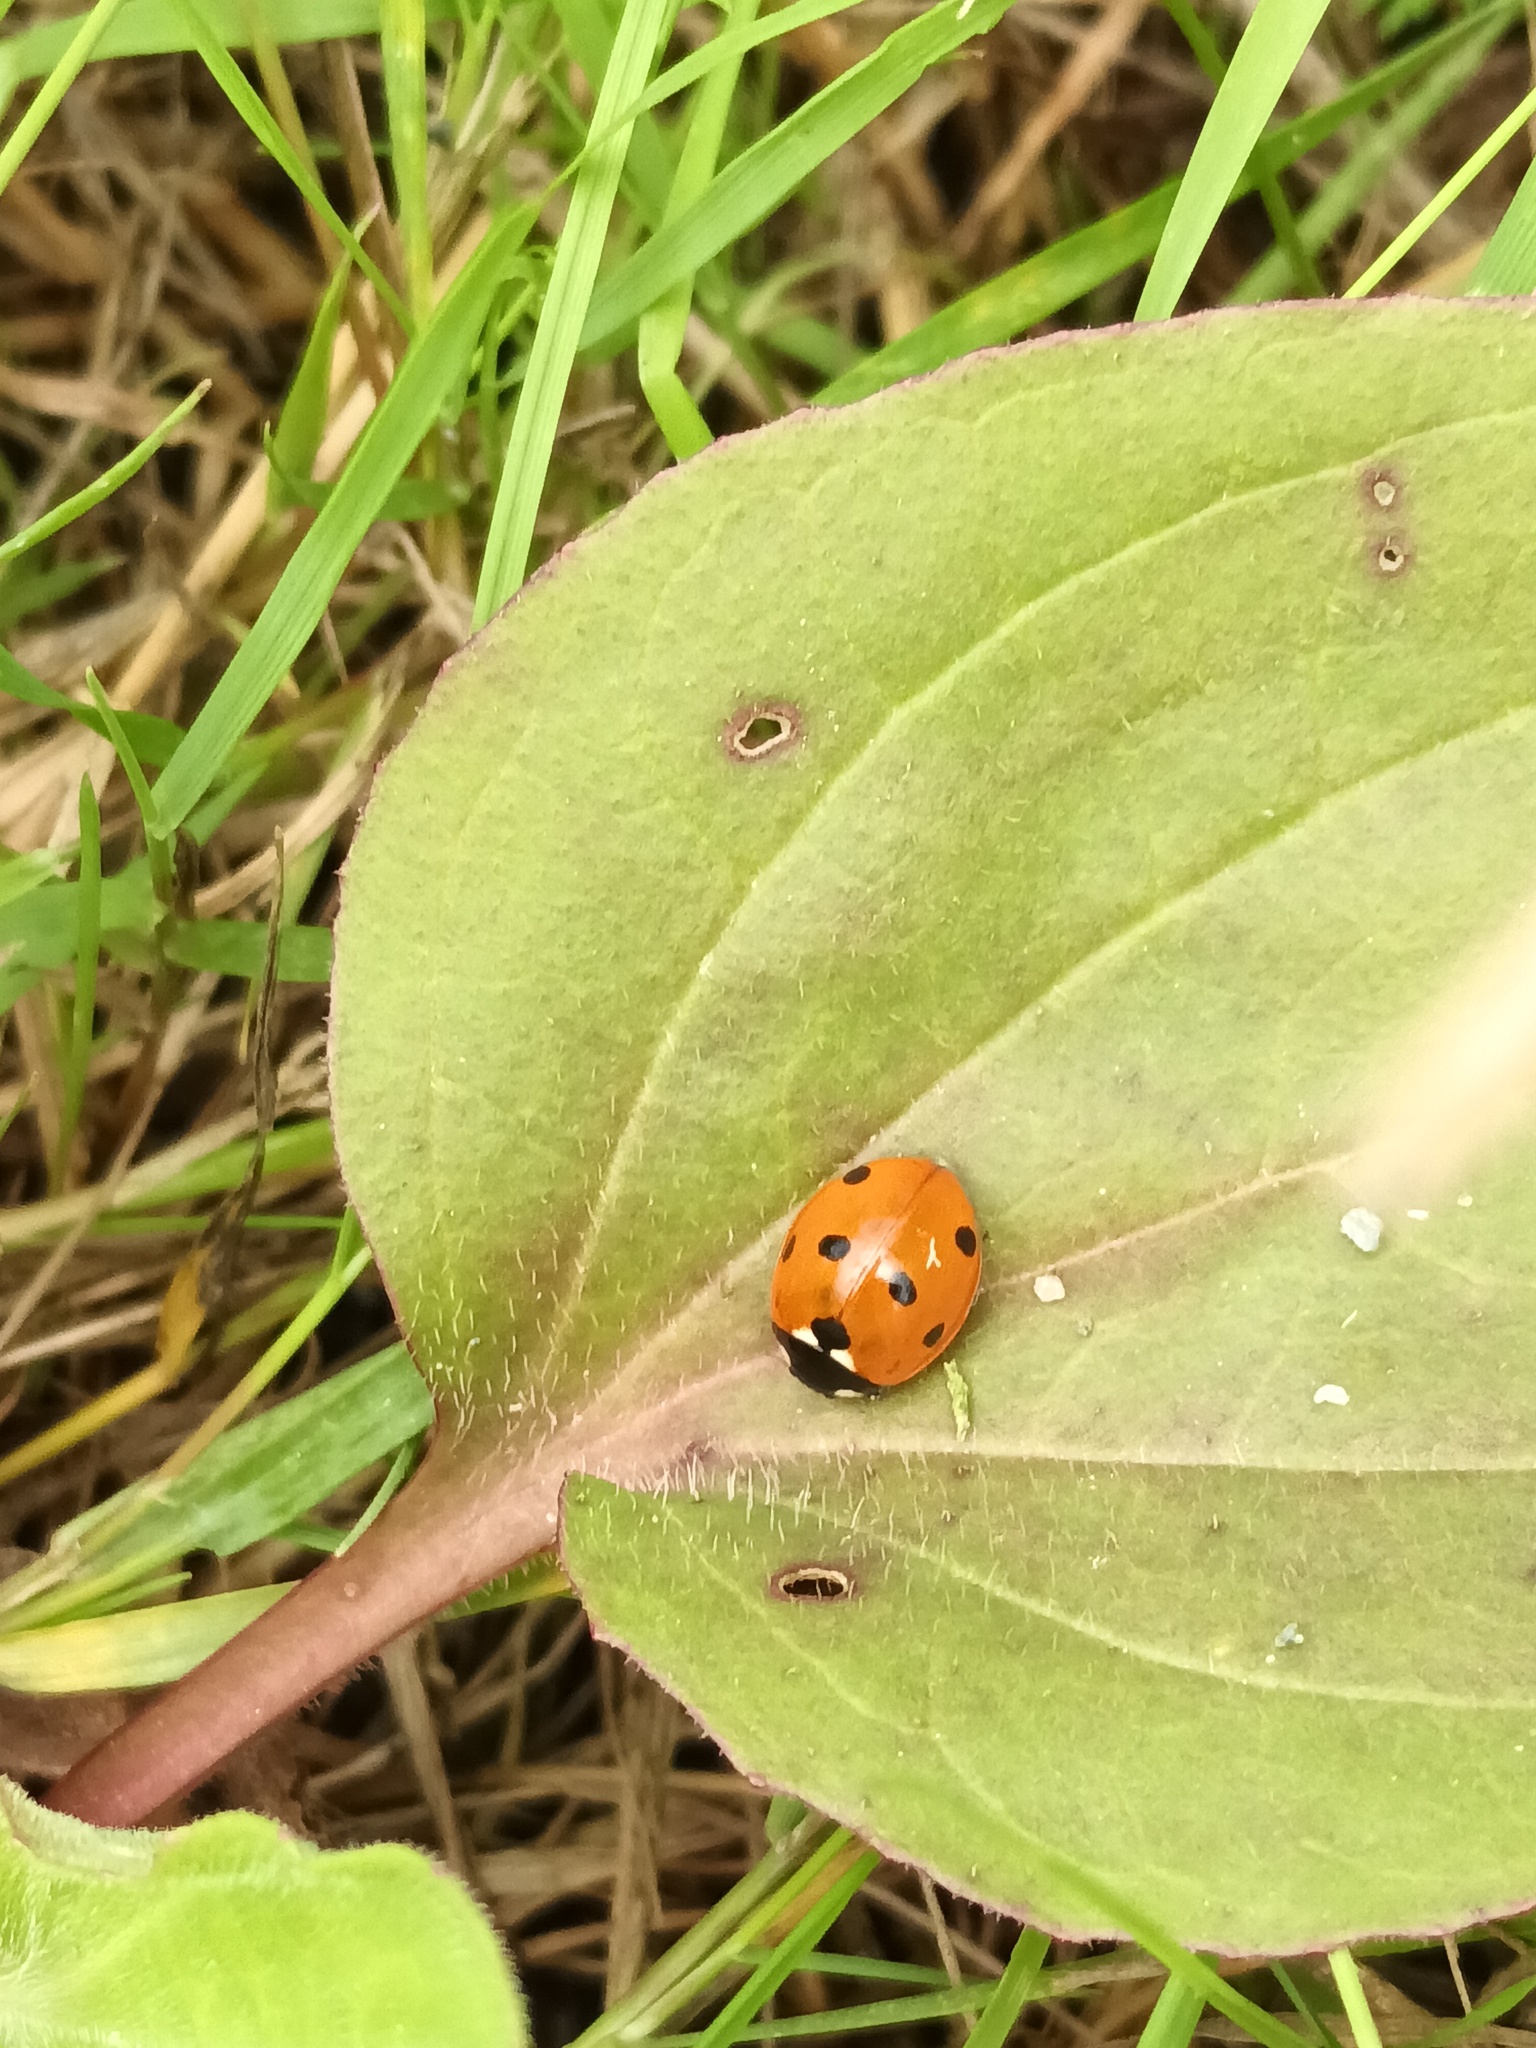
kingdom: Animalia
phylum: Arthropoda
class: Insecta
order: Coleoptera
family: Coccinellidae
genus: Coccinella
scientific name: Coccinella septempunctata
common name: Sevenspotted lady beetle
